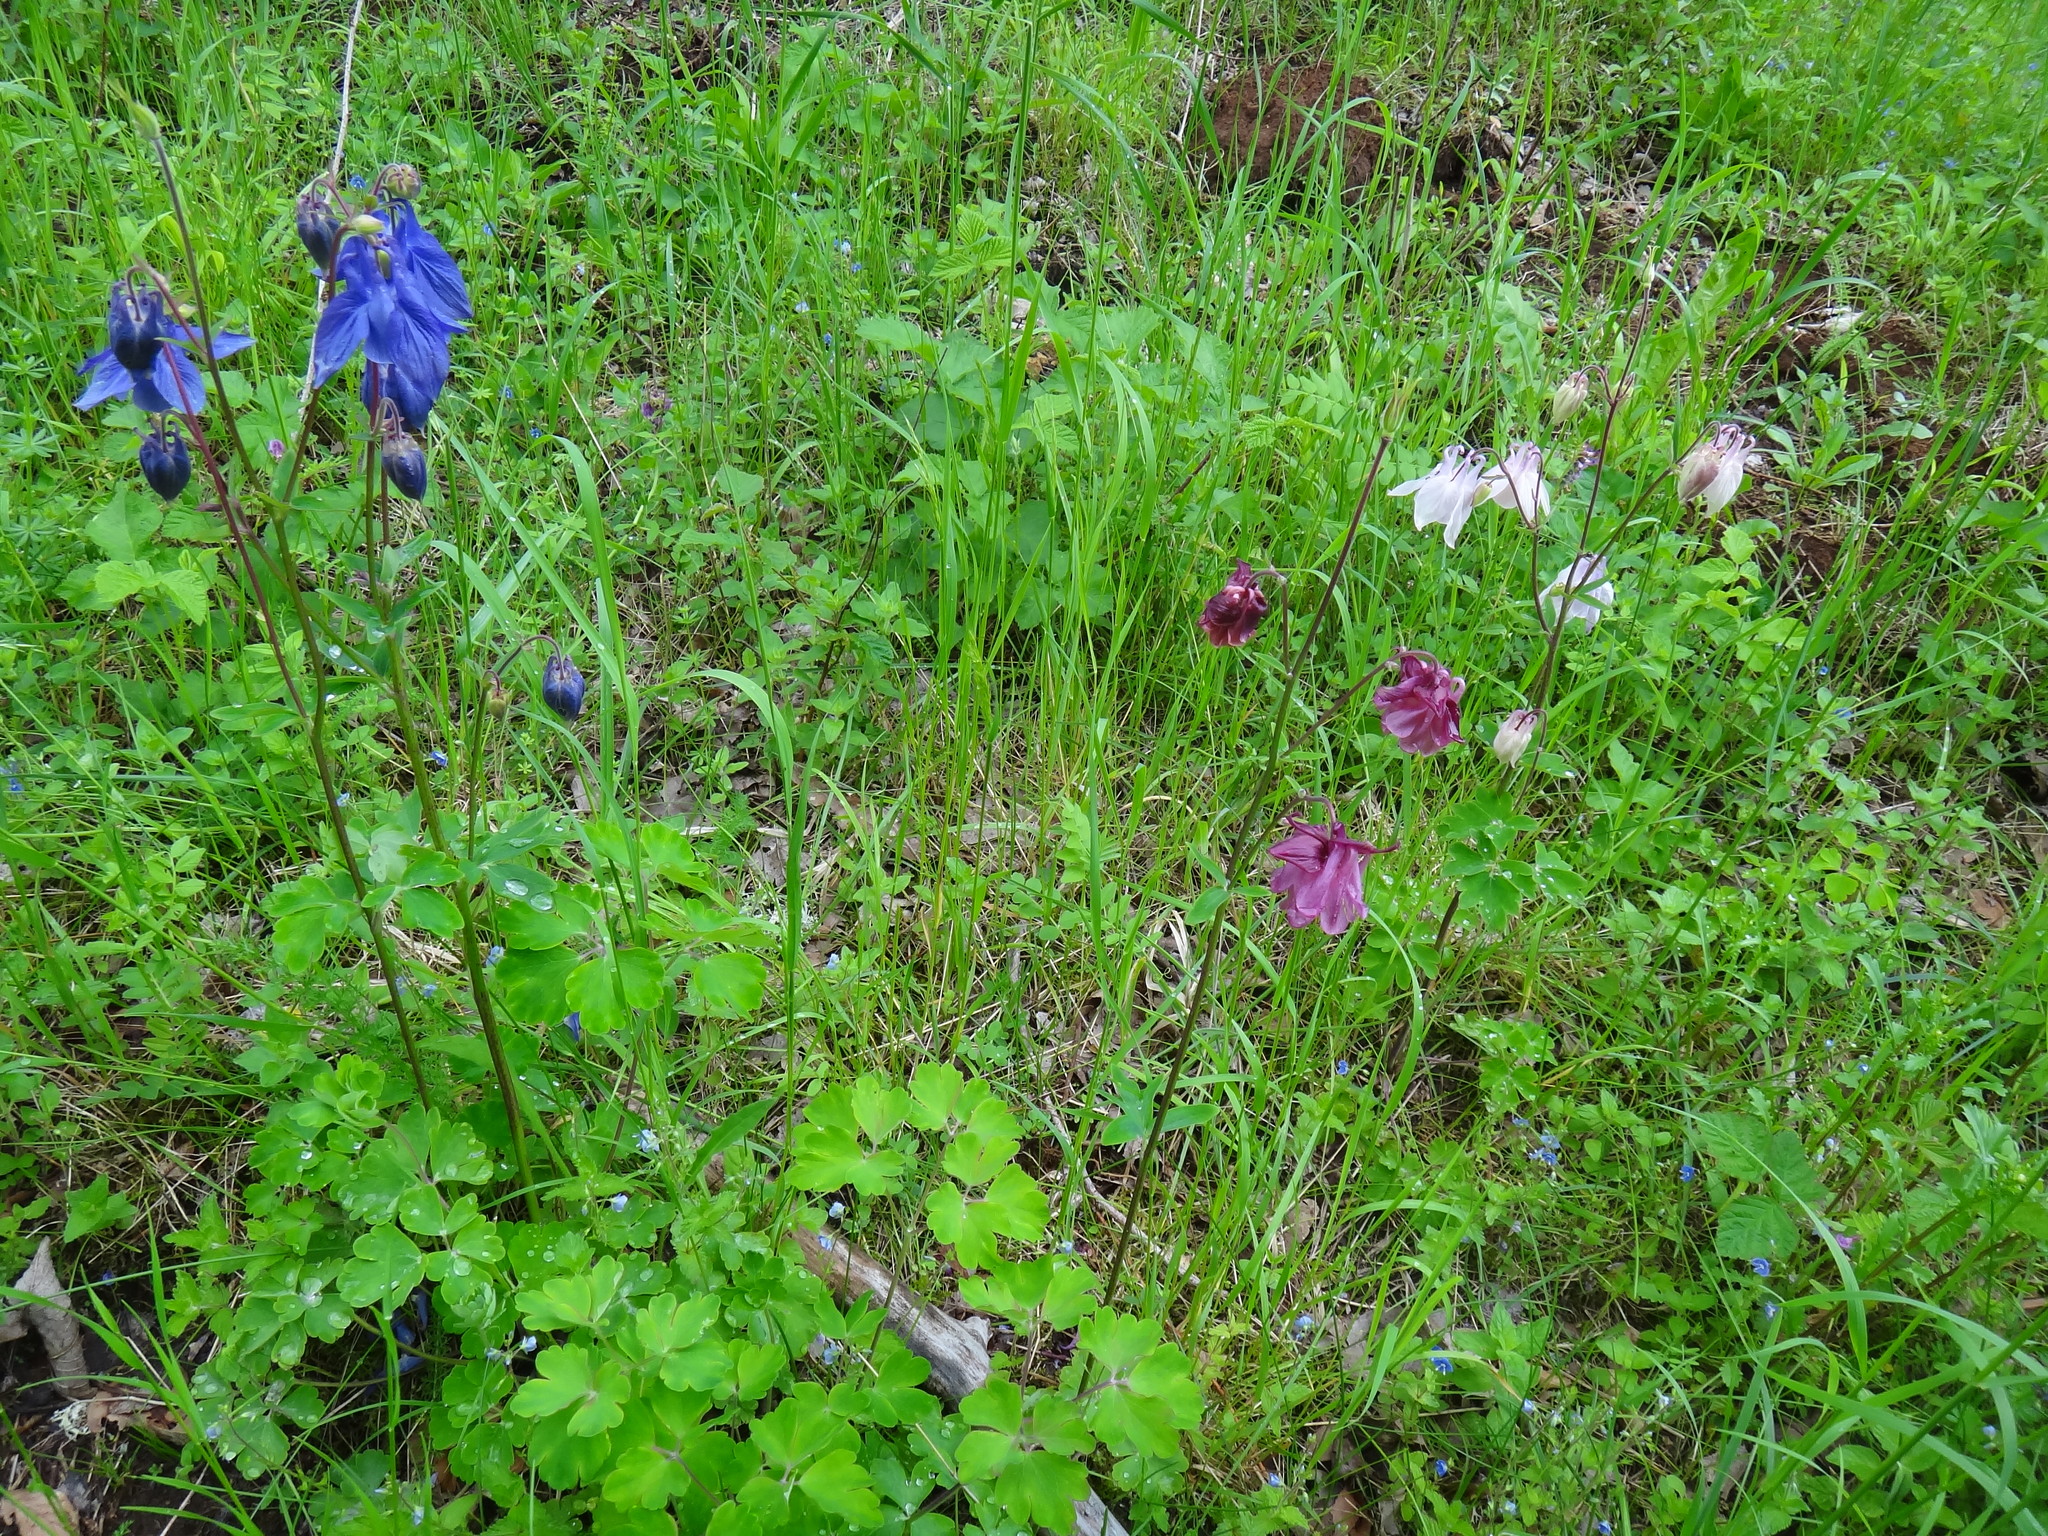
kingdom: Plantae
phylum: Tracheophyta
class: Magnoliopsida
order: Ranunculales
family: Ranunculaceae
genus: Aquilegia
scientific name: Aquilegia vulgaris
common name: Columbine
